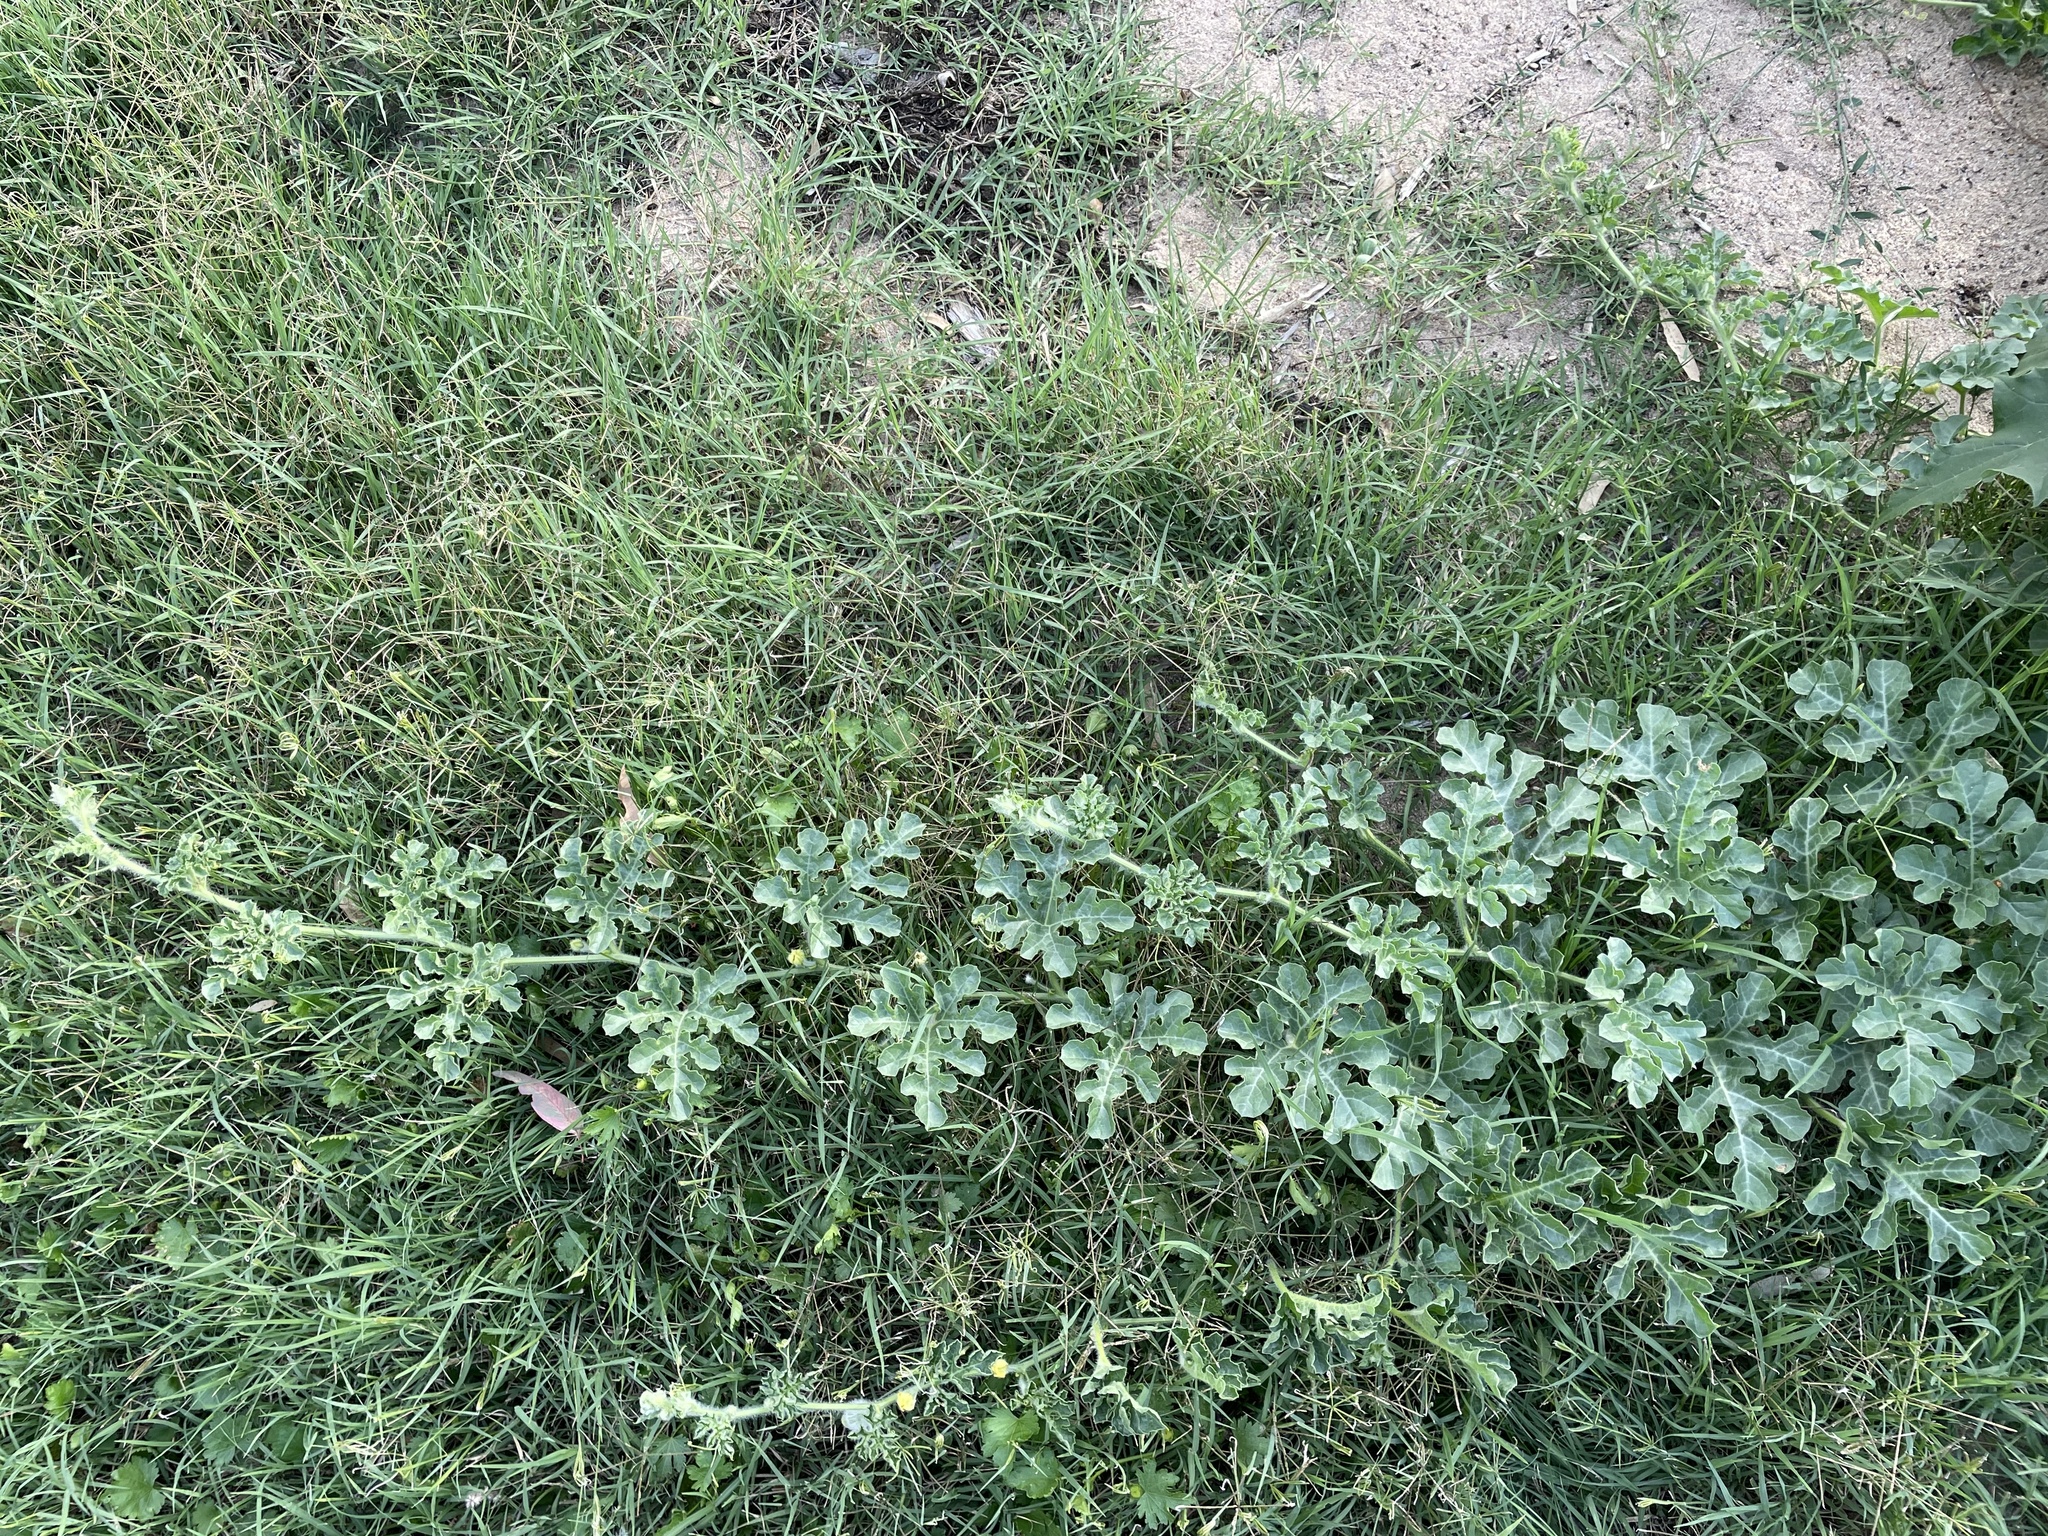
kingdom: Plantae
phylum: Tracheophyta
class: Magnoliopsida
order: Cucurbitales
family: Cucurbitaceae
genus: Citrullus
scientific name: Citrullus amarus
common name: Fodder-melon
